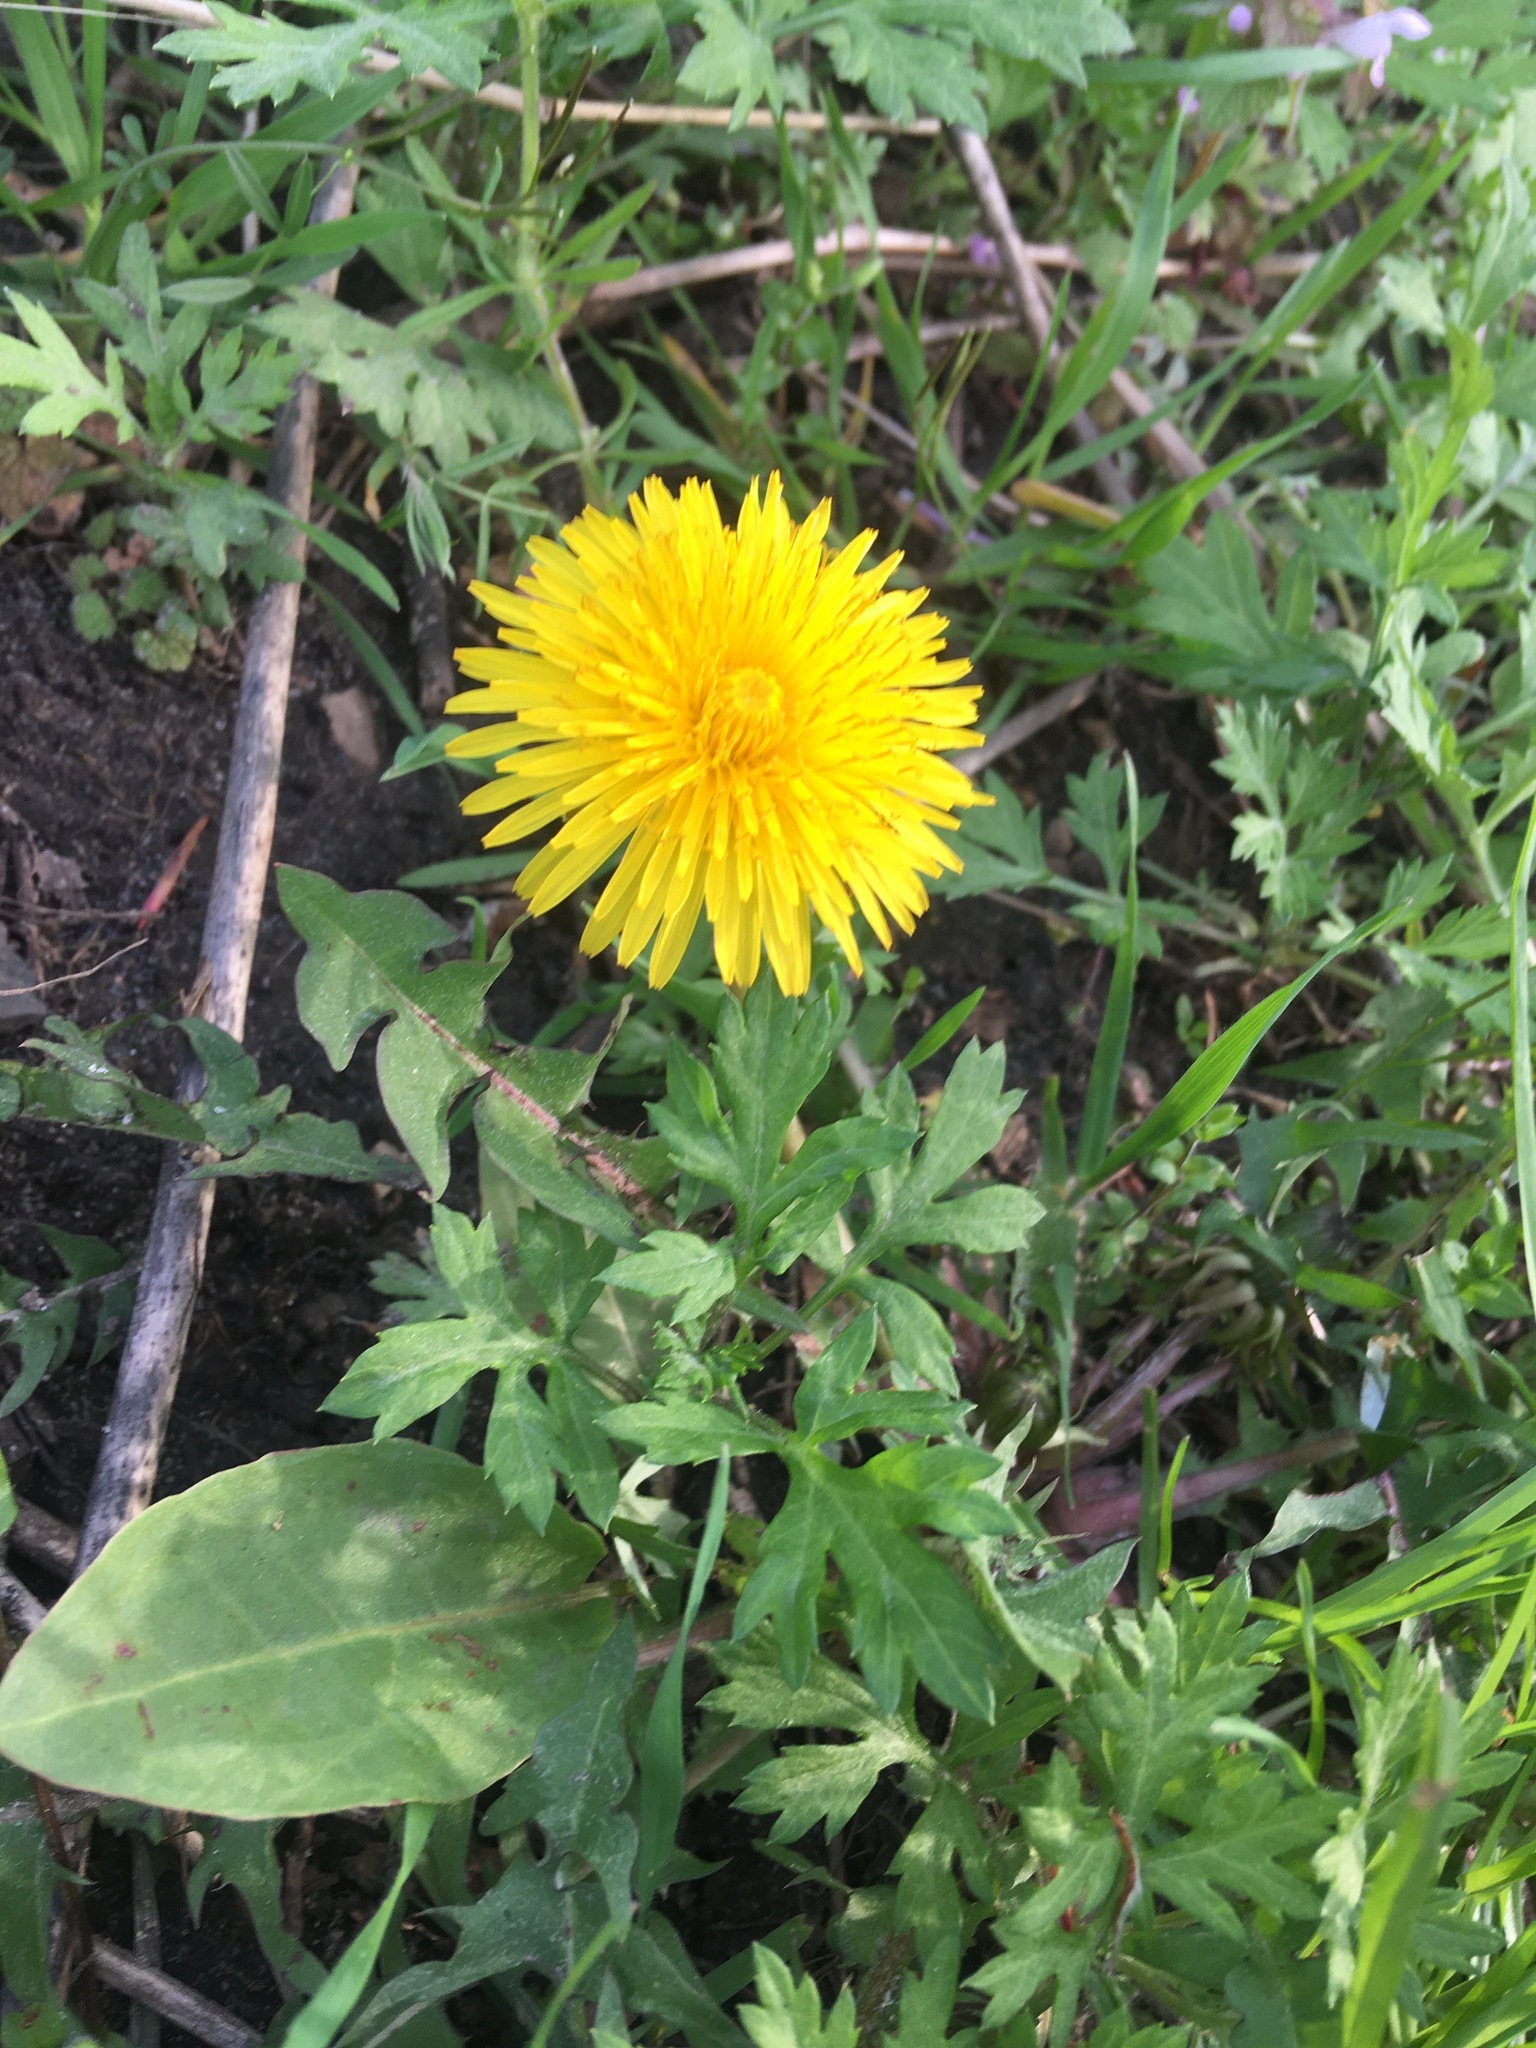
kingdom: Plantae
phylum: Tracheophyta
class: Magnoliopsida
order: Asterales
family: Asteraceae
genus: Taraxacum
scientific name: Taraxacum officinale
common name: Common dandelion
